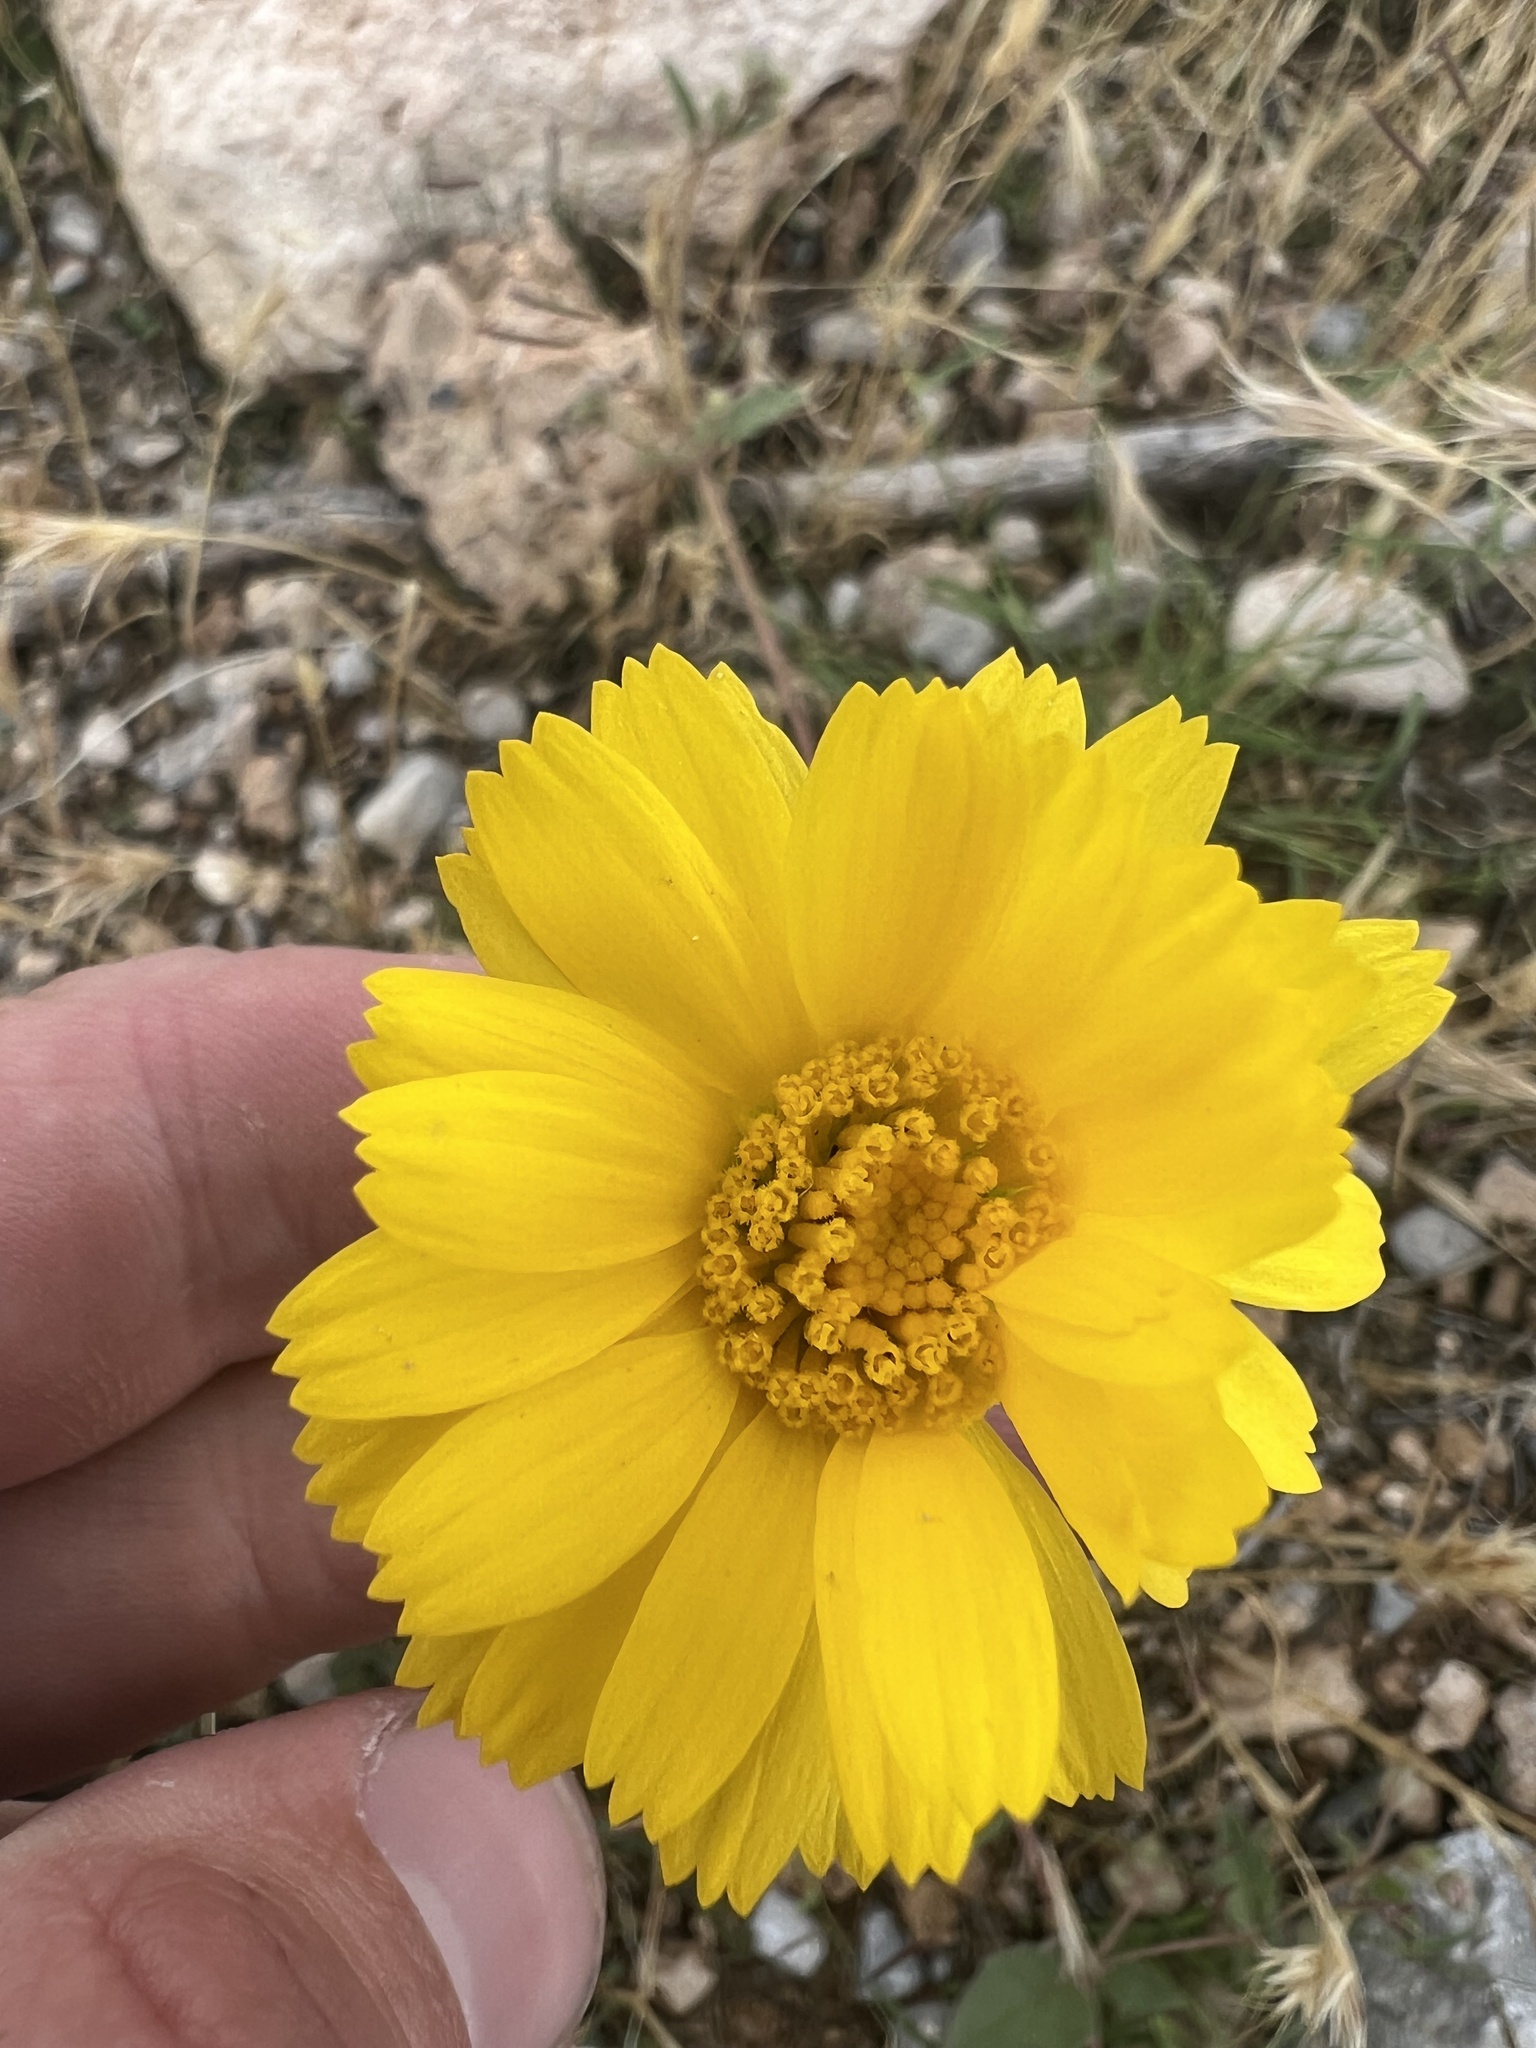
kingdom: Plantae
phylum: Tracheophyta
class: Magnoliopsida
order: Asterales
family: Asteraceae
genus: Baileya
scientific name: Baileya multiradiata
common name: Desert-marigold
